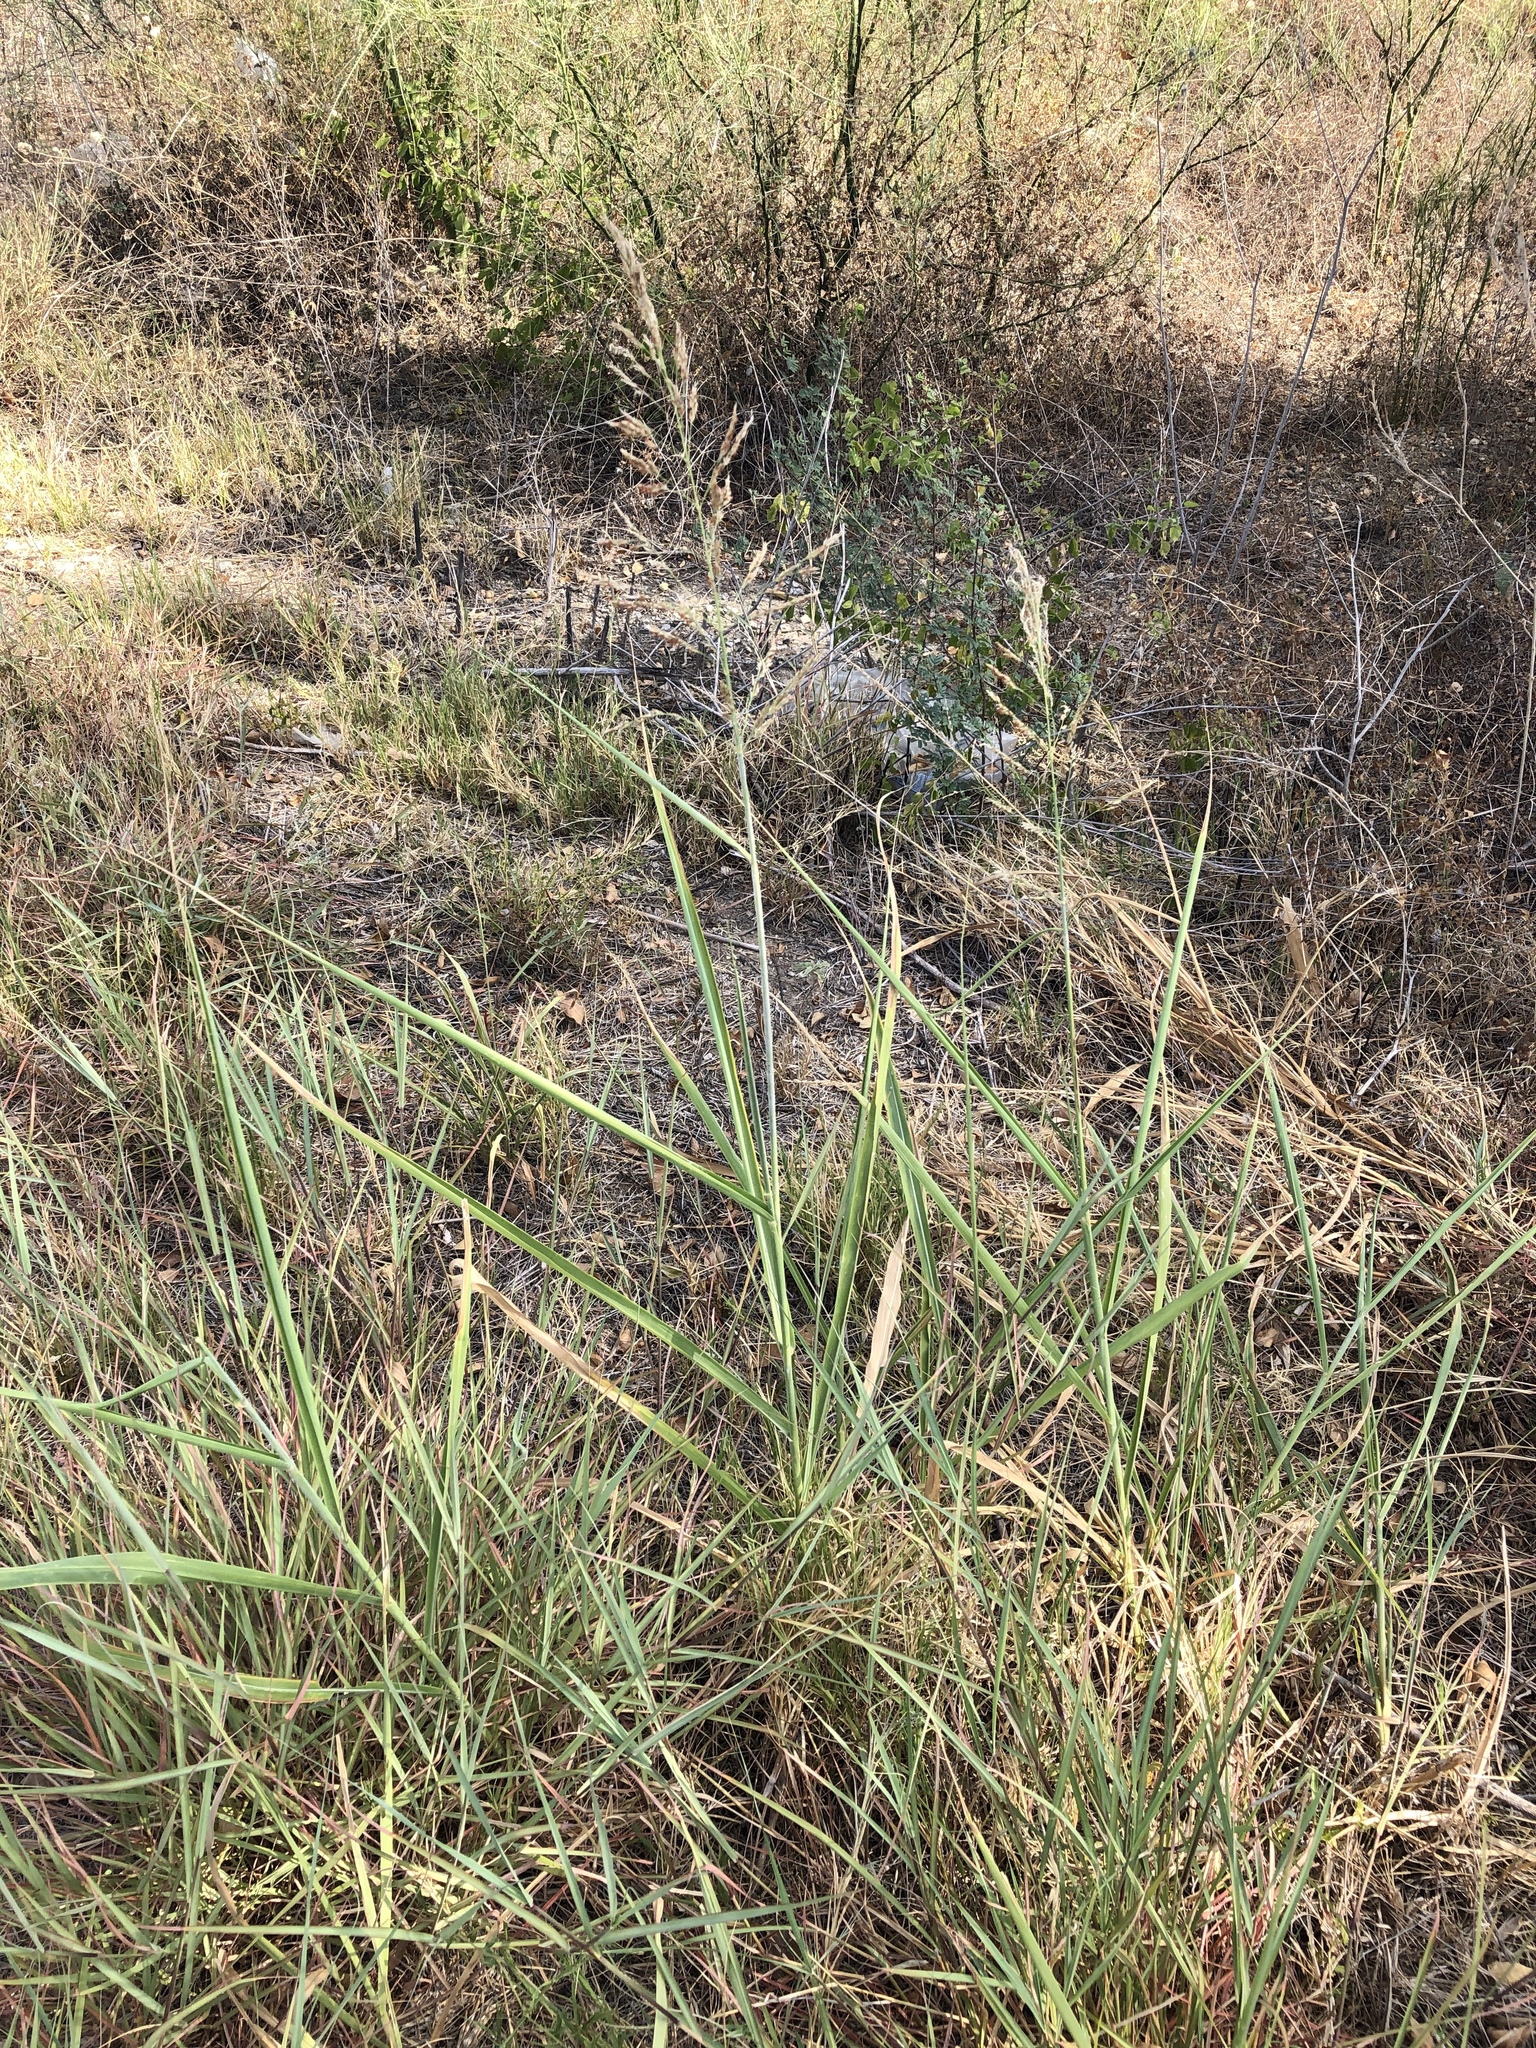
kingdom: Plantae
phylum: Tracheophyta
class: Liliopsida
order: Poales
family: Poaceae
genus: Sorghum
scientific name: Sorghum halepense
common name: Johnson-grass
